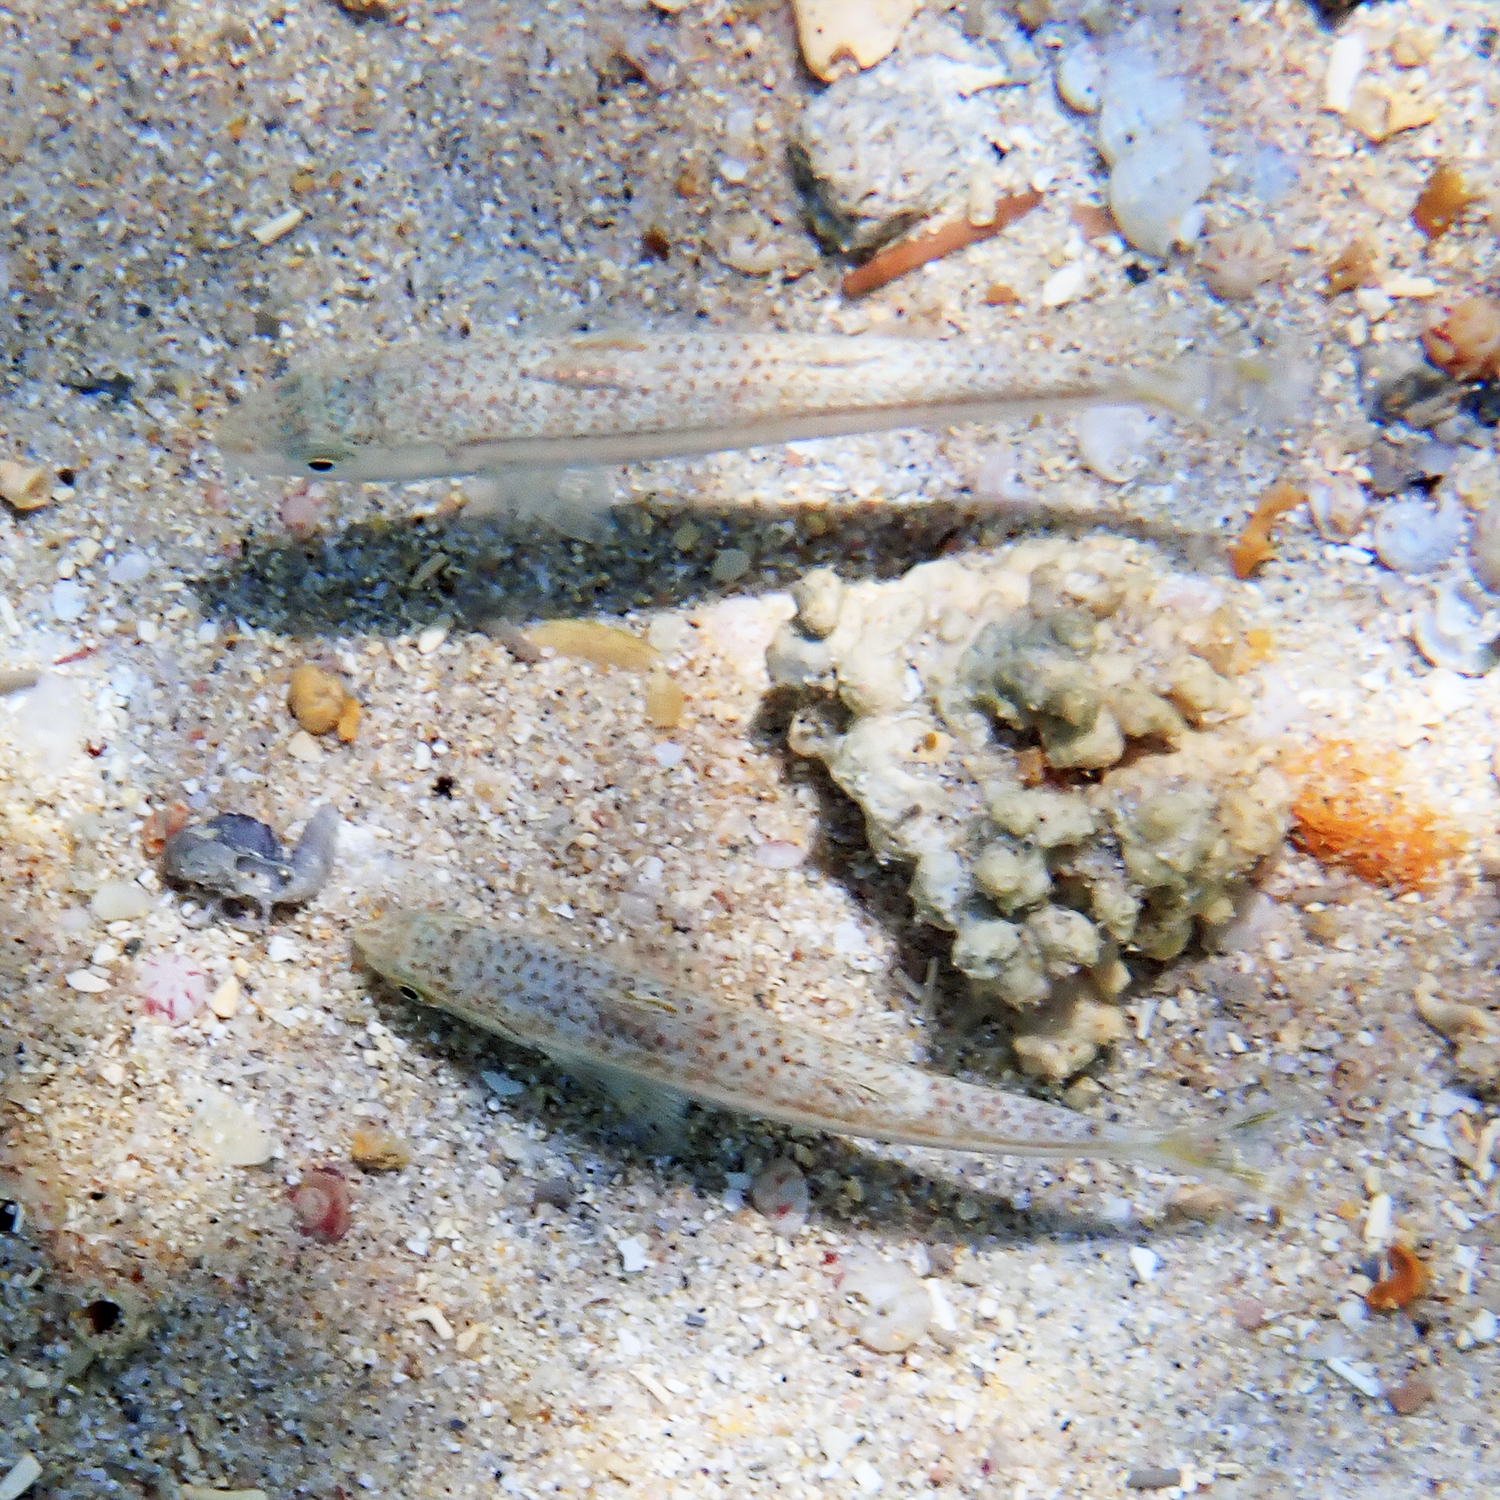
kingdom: Animalia
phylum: Chordata
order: Perciformes
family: Mullidae
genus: Upeneus
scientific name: Upeneus francisi
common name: Francis' goatfish
